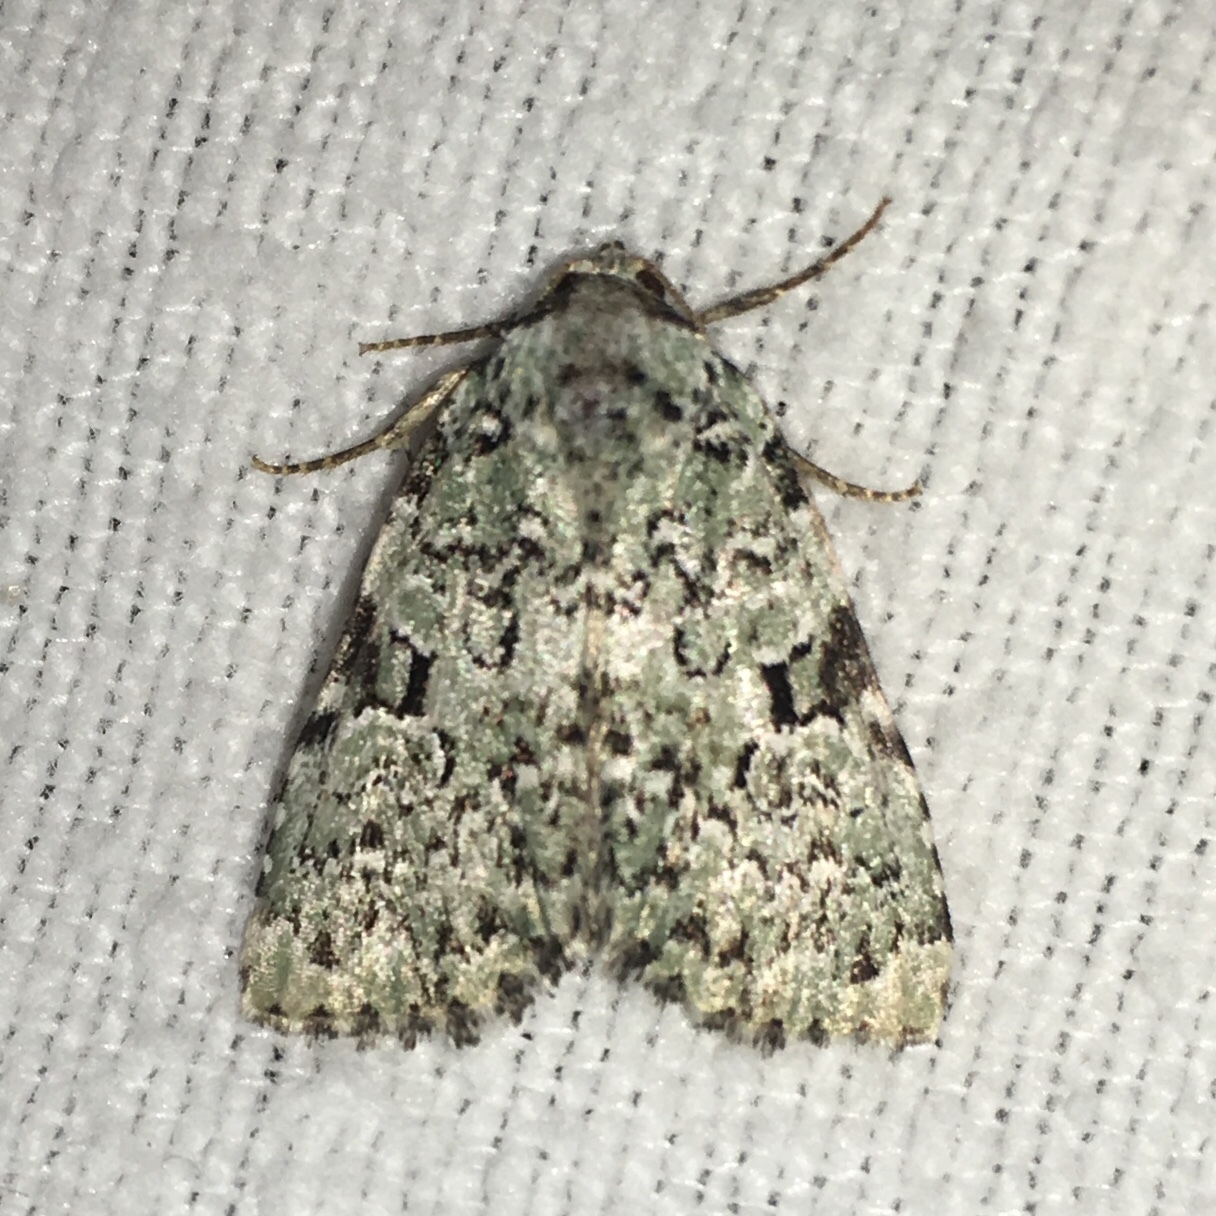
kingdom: Animalia
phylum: Arthropoda
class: Insecta
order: Lepidoptera
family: Noctuidae
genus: Leuconycta
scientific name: Leuconycta diphteroides
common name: Green leuconycta moth
